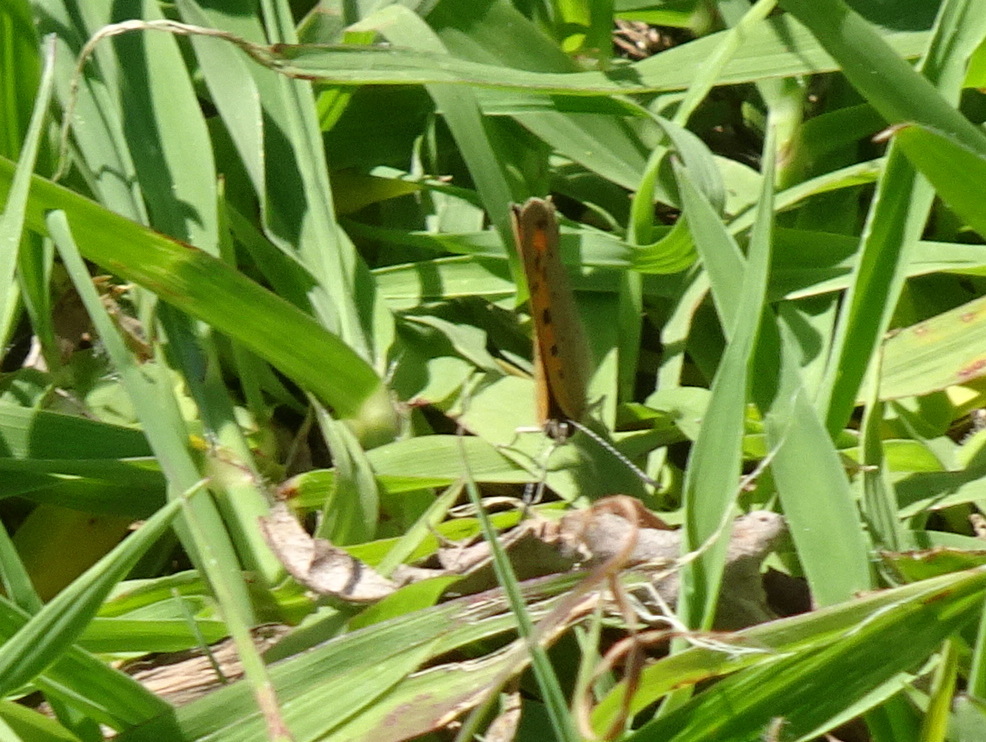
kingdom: Animalia
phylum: Arthropoda
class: Insecta
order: Lepidoptera
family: Lycaenidae
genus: Lycaena
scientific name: Lycaena phlaeas
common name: Small copper
